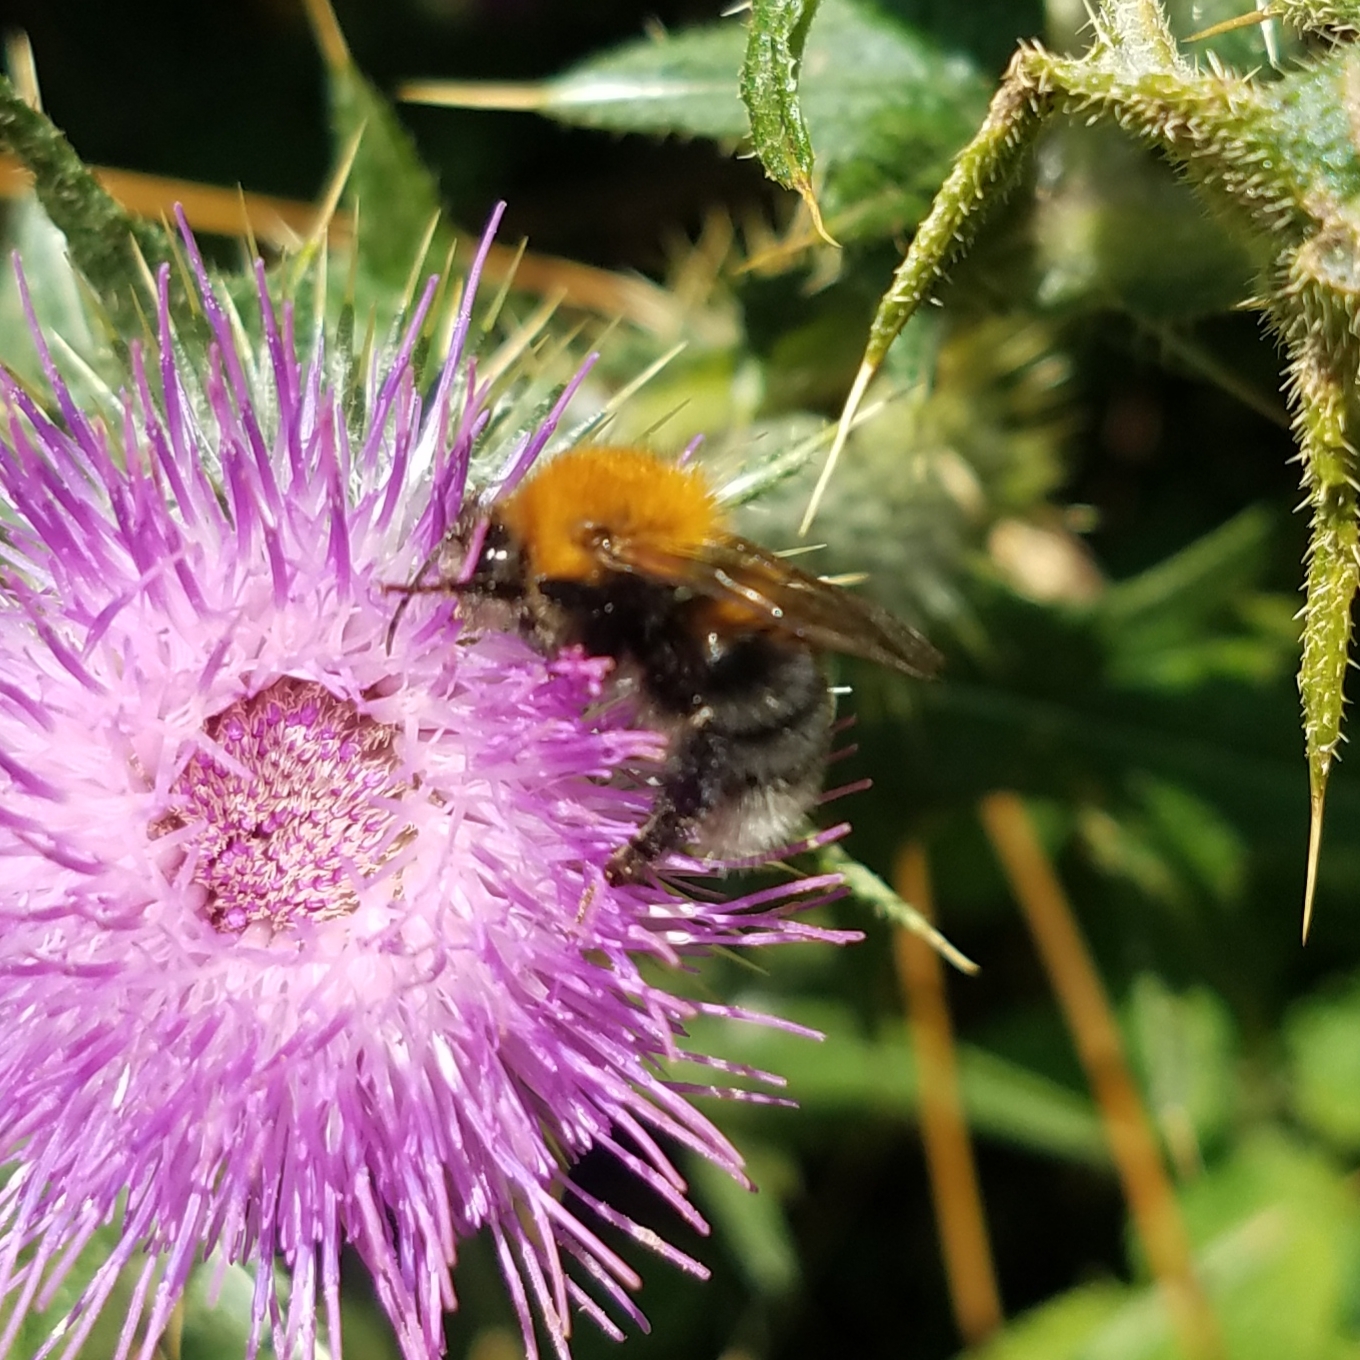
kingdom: Animalia
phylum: Arthropoda
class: Insecta
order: Hymenoptera
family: Apidae
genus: Bombus
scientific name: Bombus hypnorum
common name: New garden bumblebee
